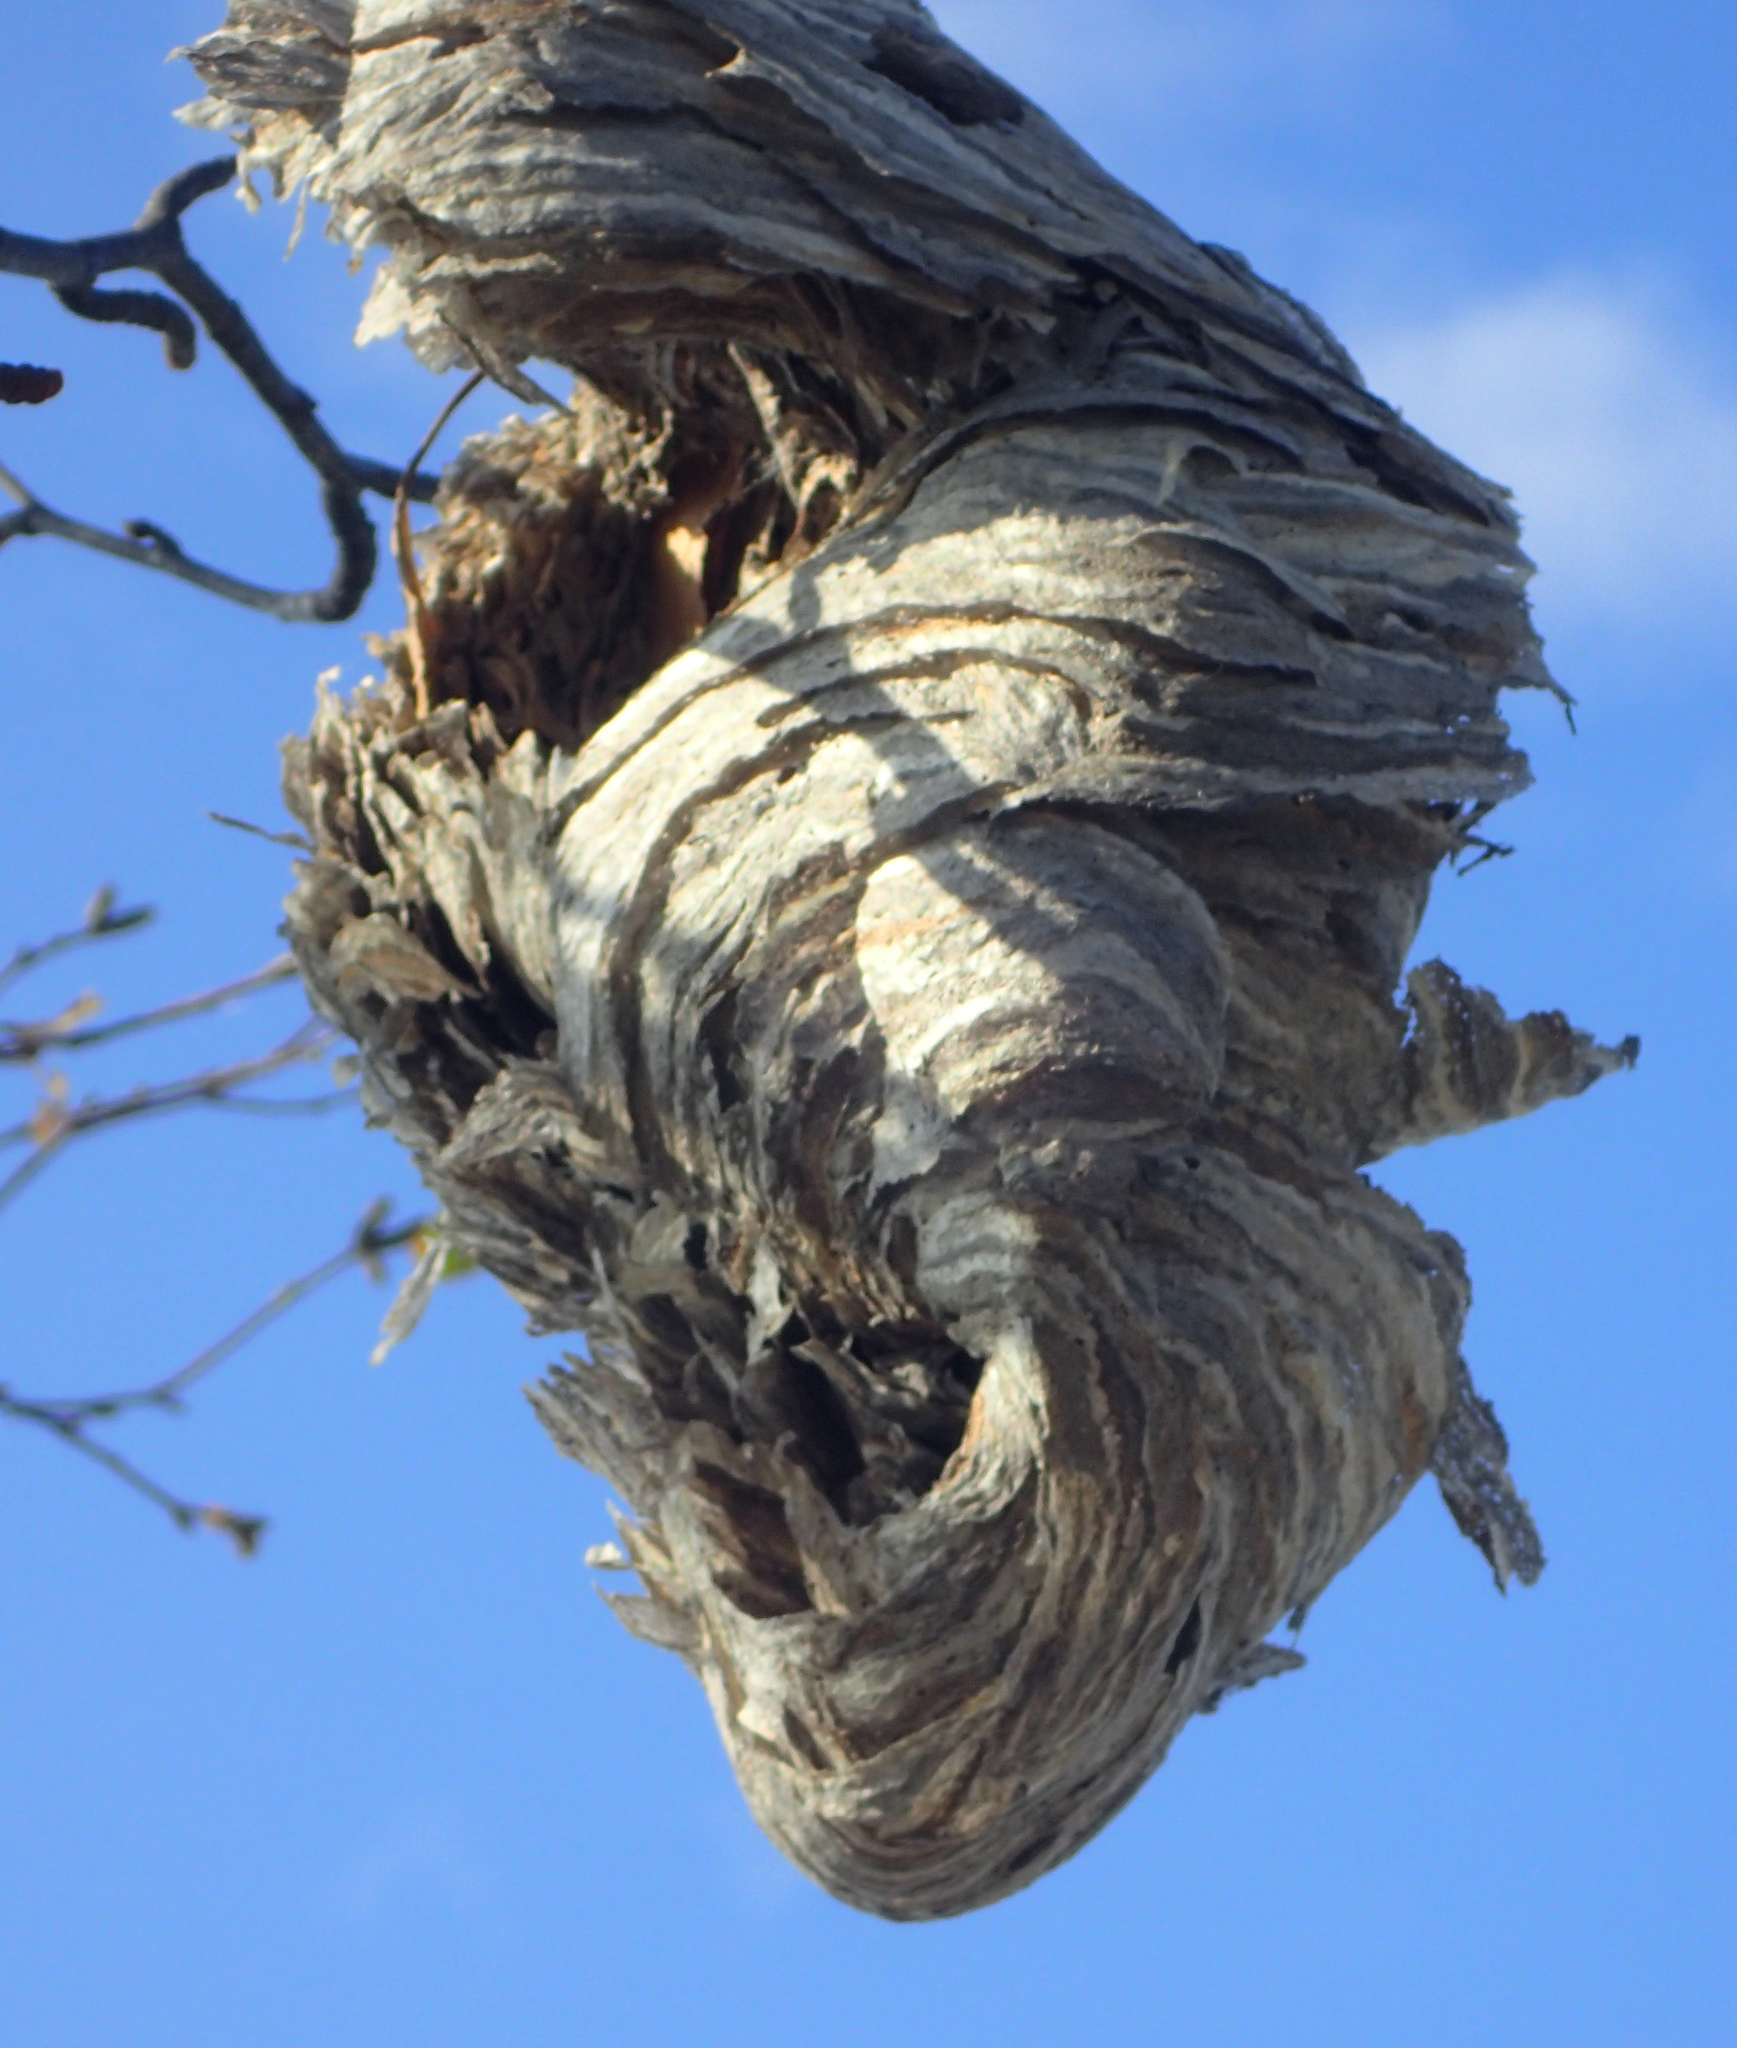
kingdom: Animalia
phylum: Arthropoda
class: Insecta
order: Hymenoptera
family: Vespidae
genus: Dolichovespula
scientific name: Dolichovespula
